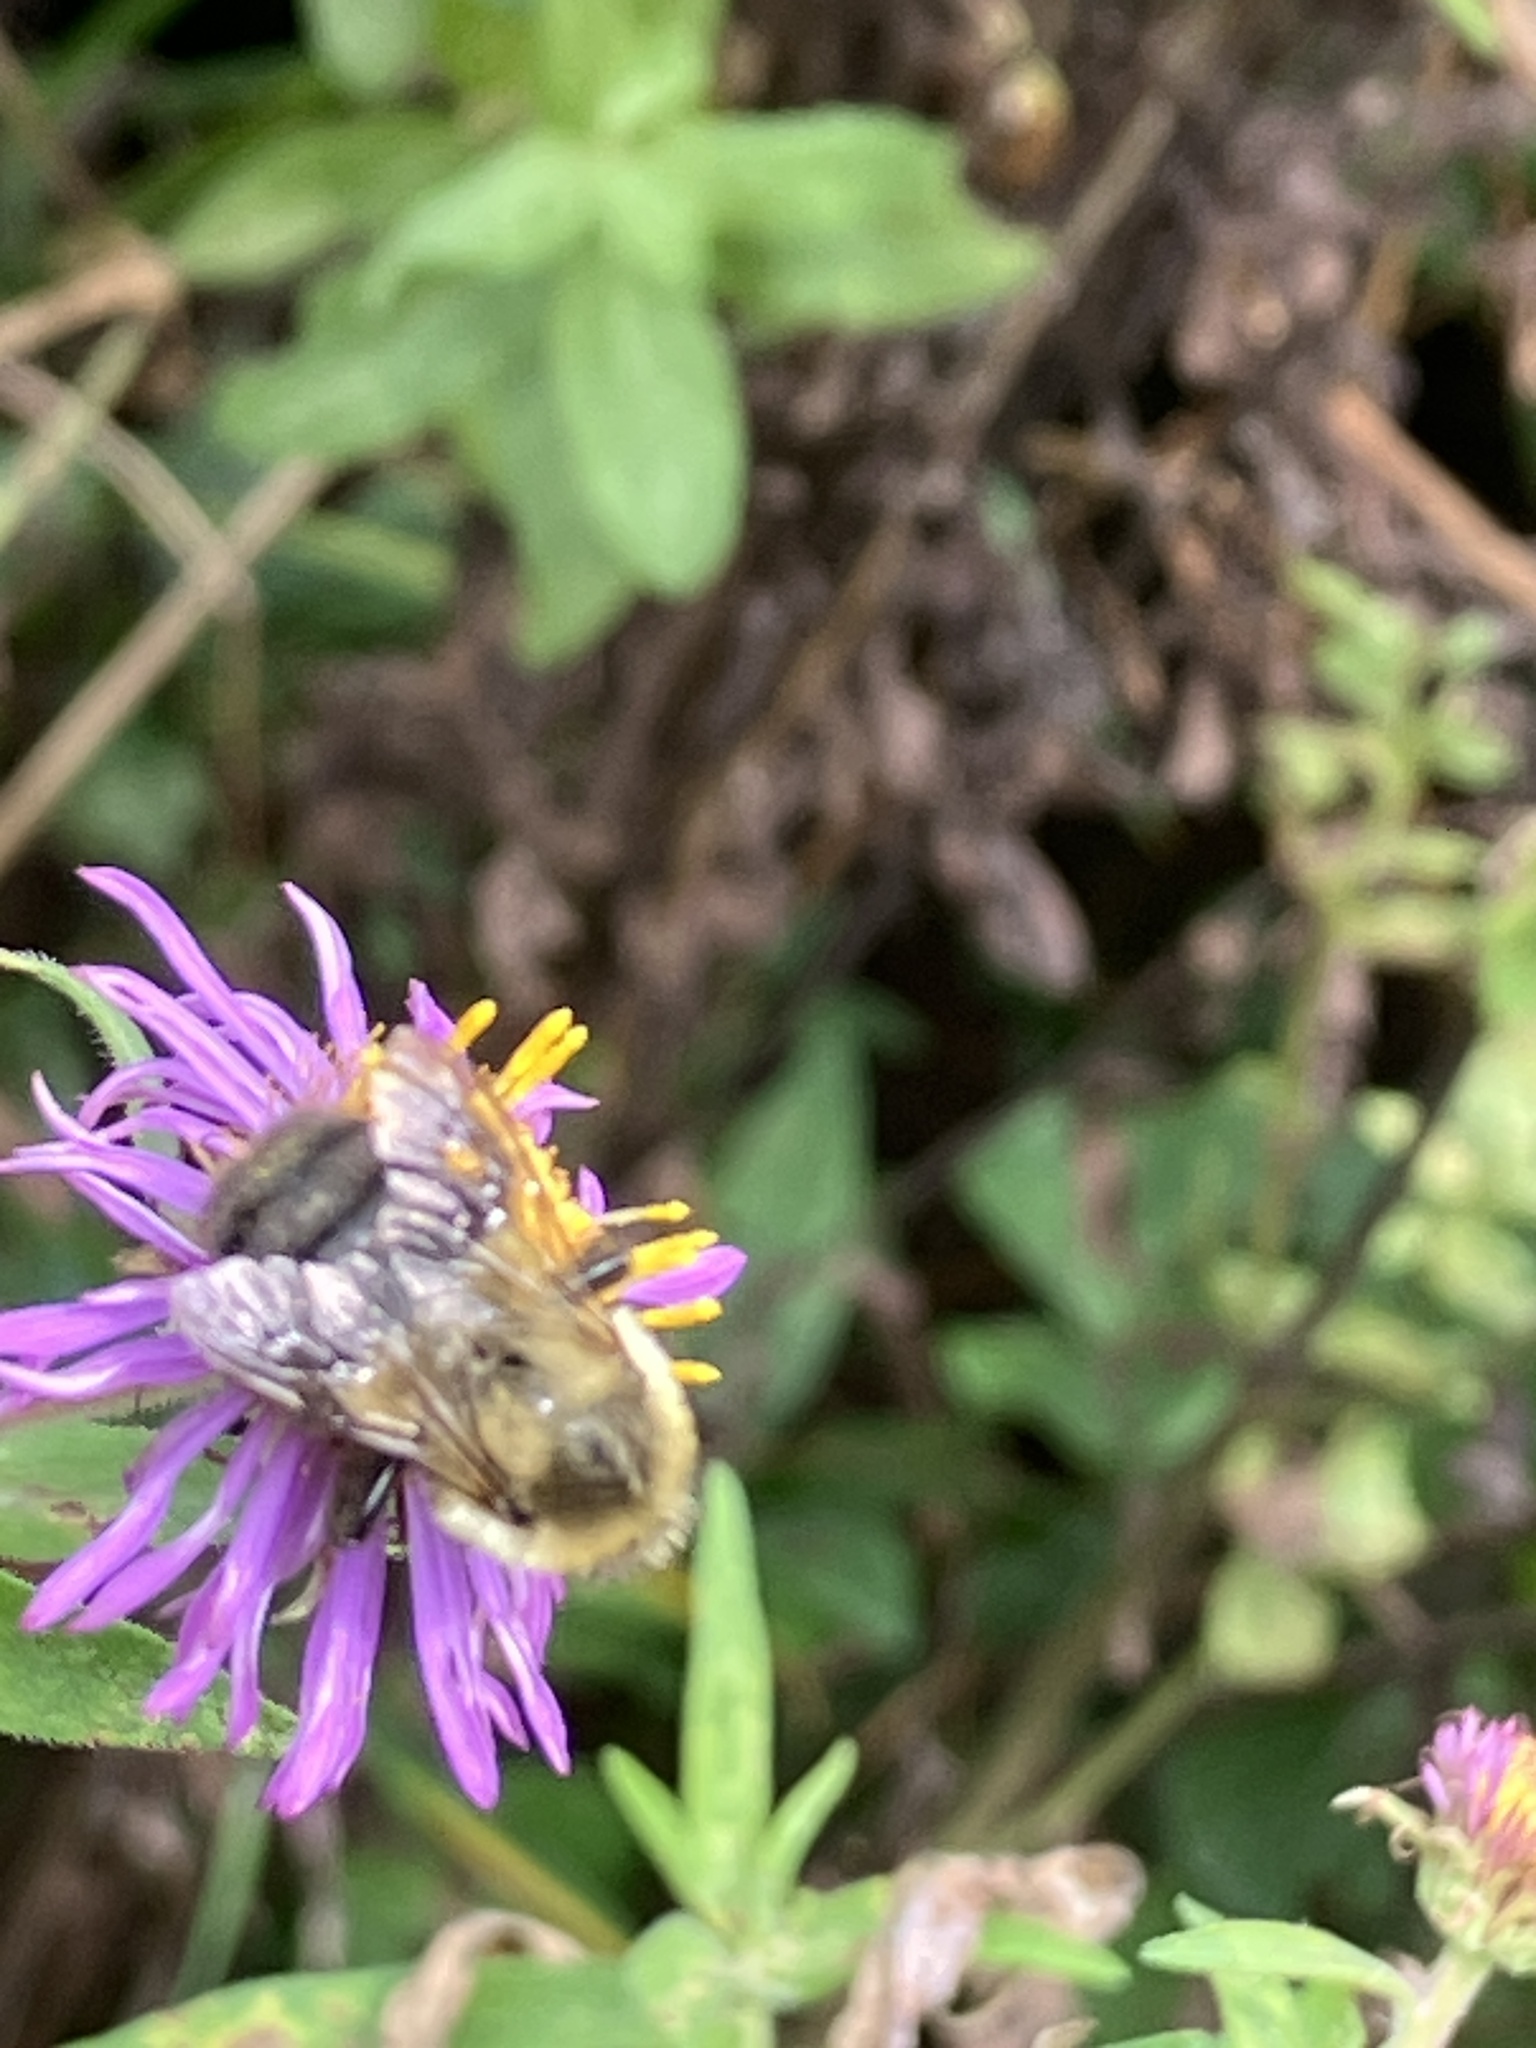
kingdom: Animalia
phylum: Arthropoda
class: Insecta
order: Hymenoptera
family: Apidae
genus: Bombus
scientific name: Bombus impatiens
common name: Common eastern bumble bee
